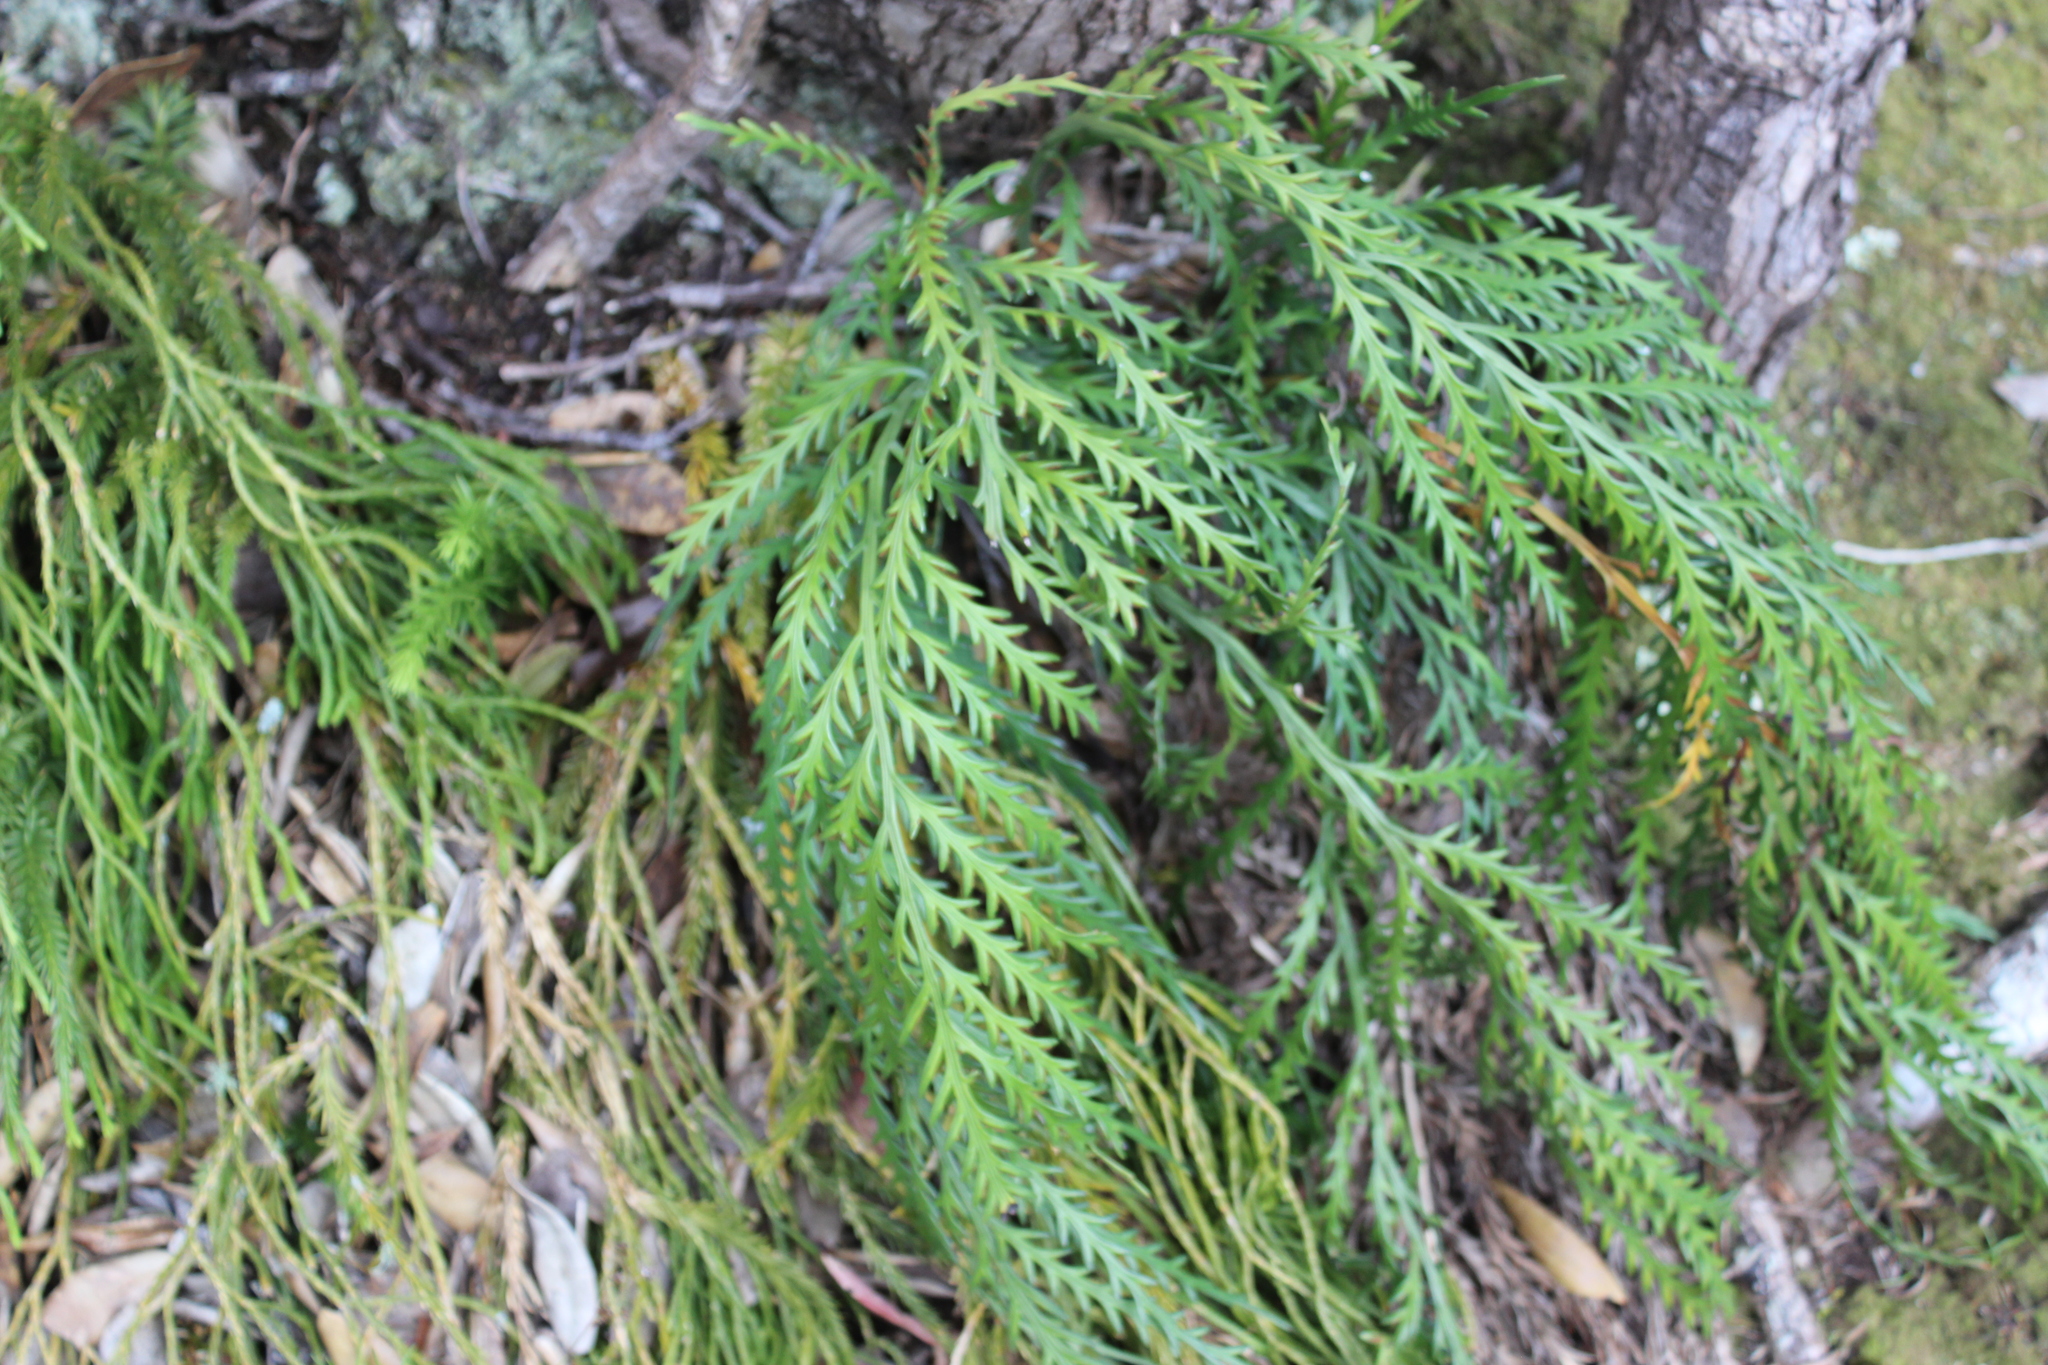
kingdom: Plantae
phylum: Tracheophyta
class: Polypodiopsida
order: Polypodiales
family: Aspleniaceae
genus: Asplenium
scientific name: Asplenium flaccidum
